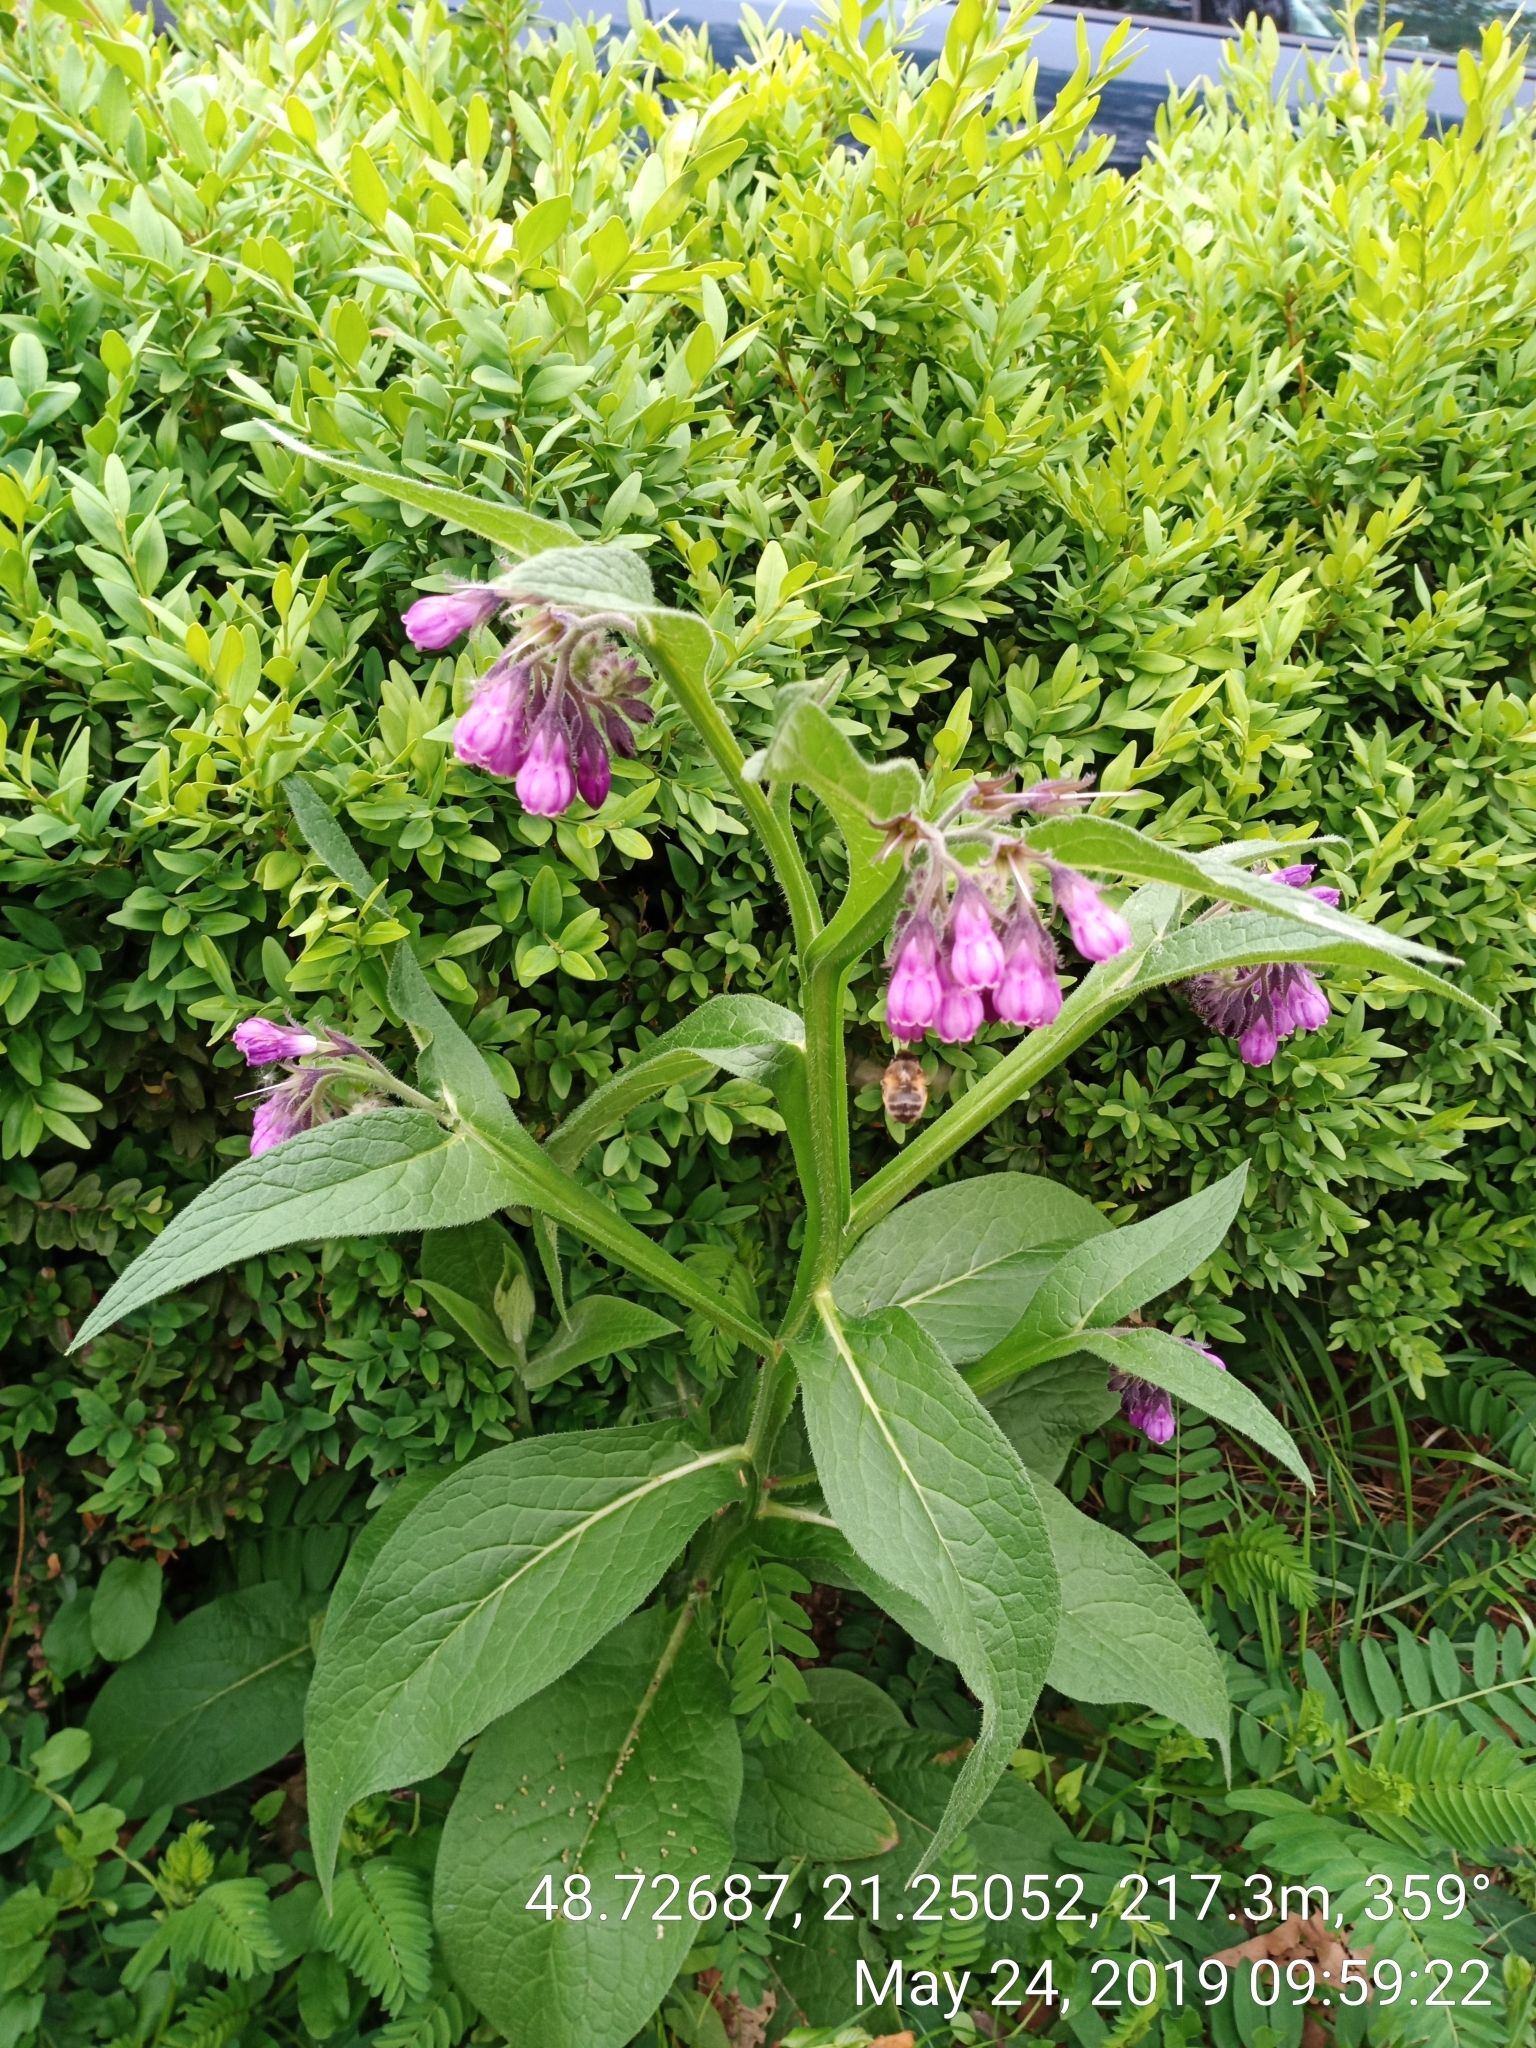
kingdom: Plantae
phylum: Tracheophyta
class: Magnoliopsida
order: Boraginales
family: Boraginaceae
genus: Symphytum
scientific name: Symphytum officinale
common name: Common comfrey
